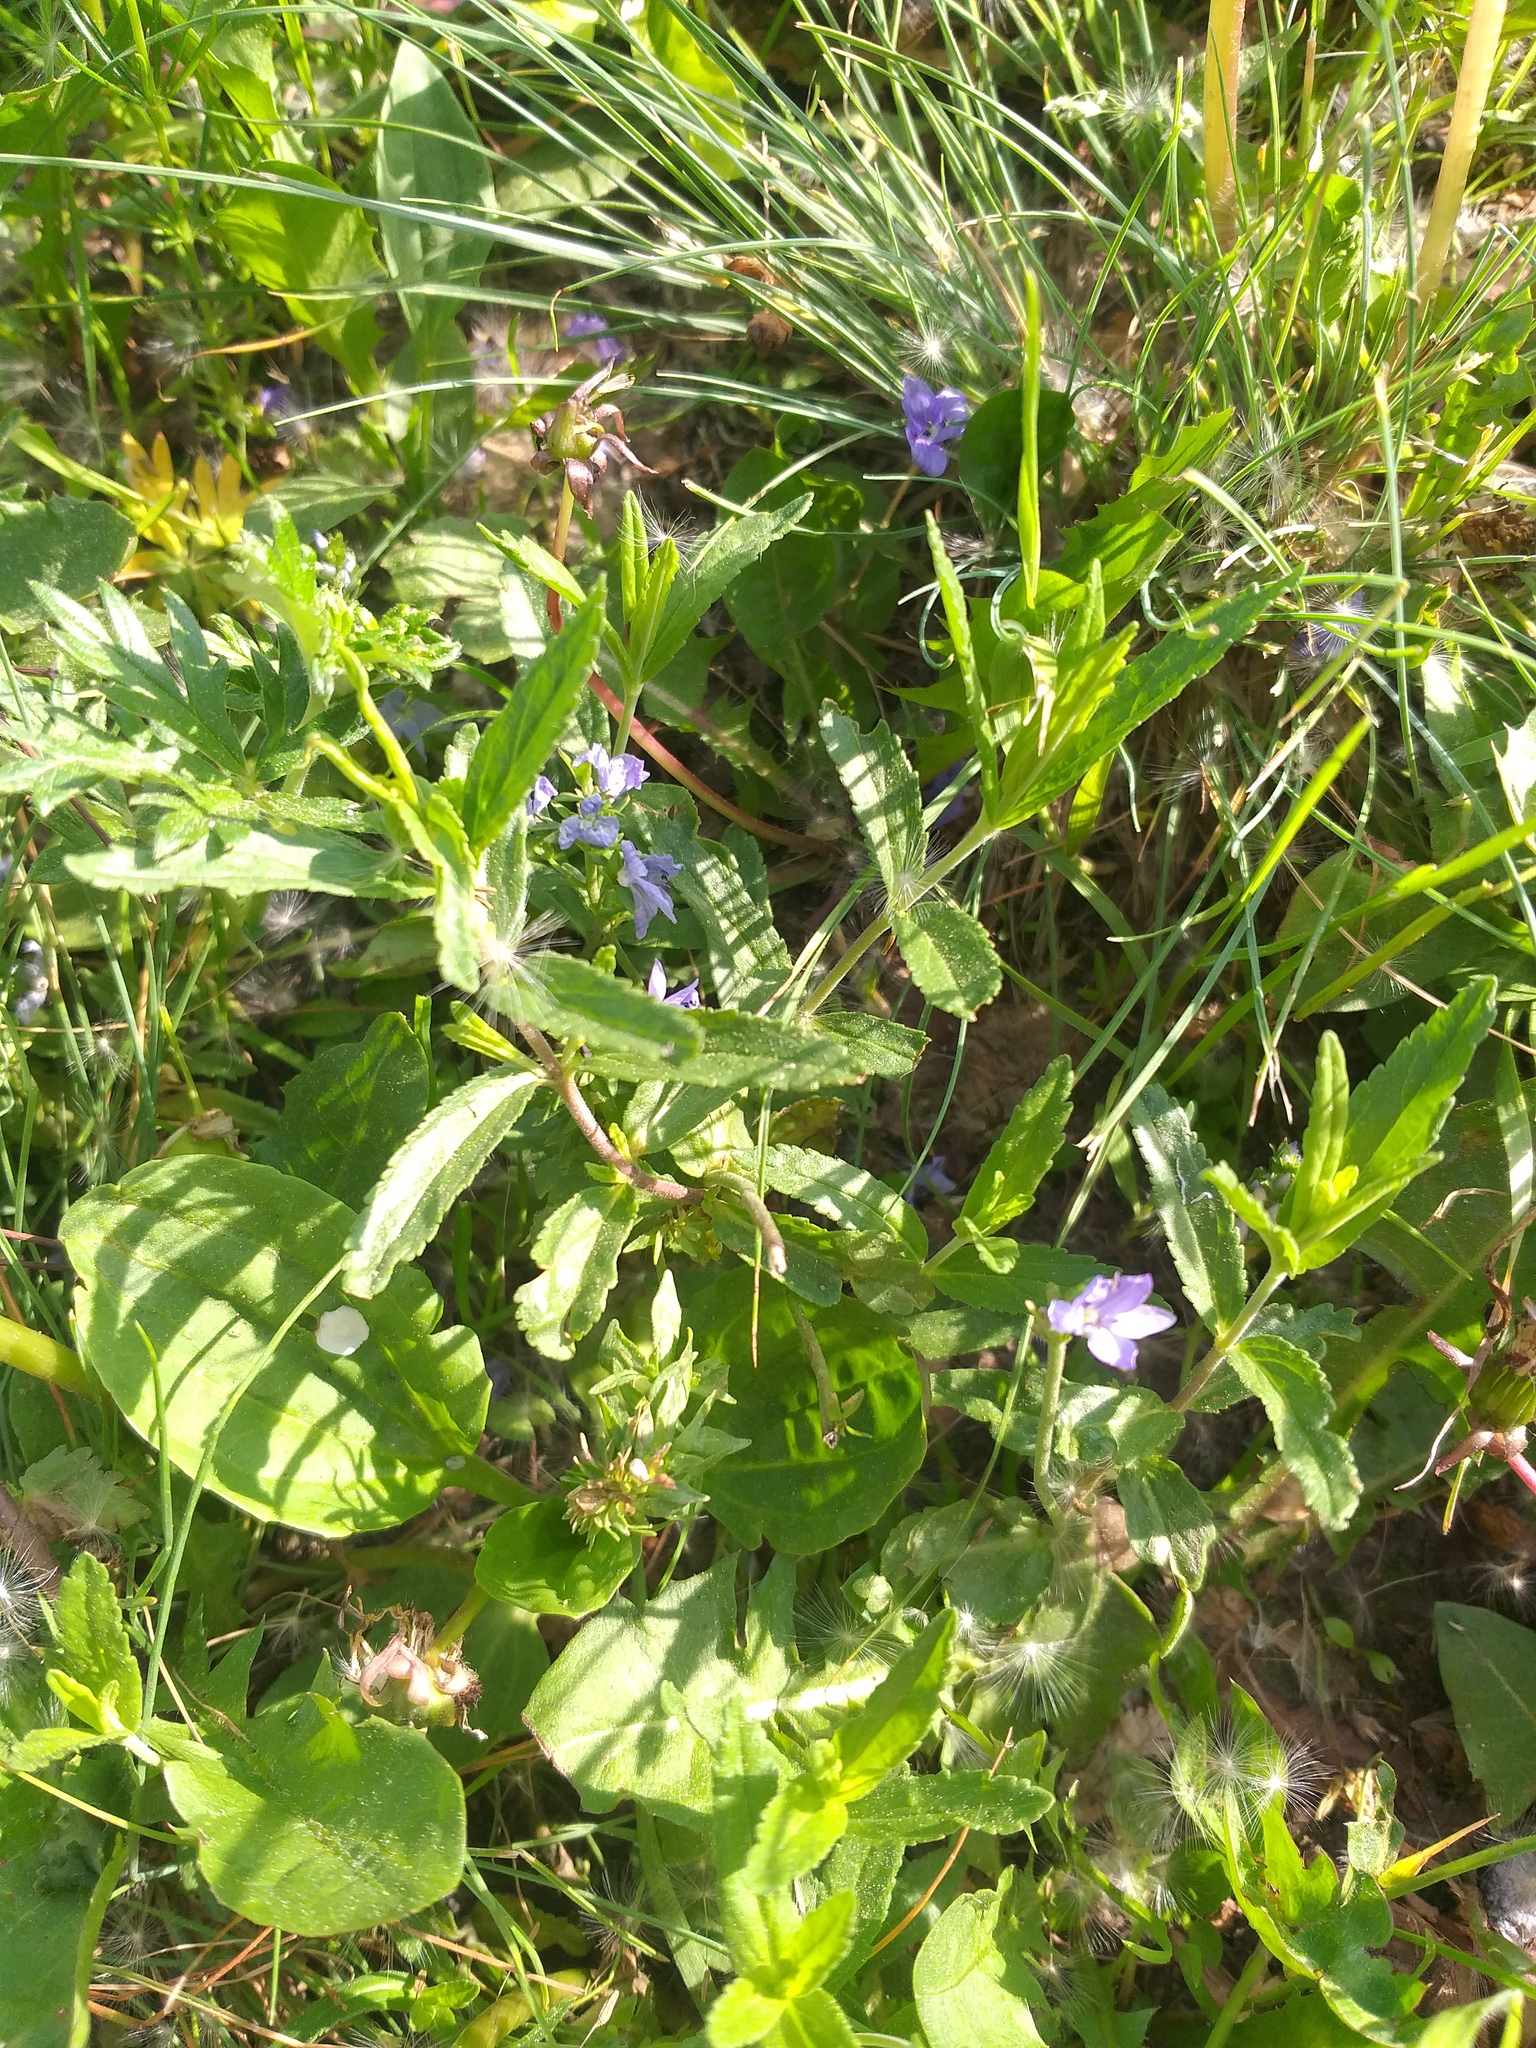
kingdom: Plantae
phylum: Tracheophyta
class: Magnoliopsida
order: Lamiales
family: Plantaginaceae
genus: Veronica
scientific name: Veronica prostrata
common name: Prostrate speedwell
